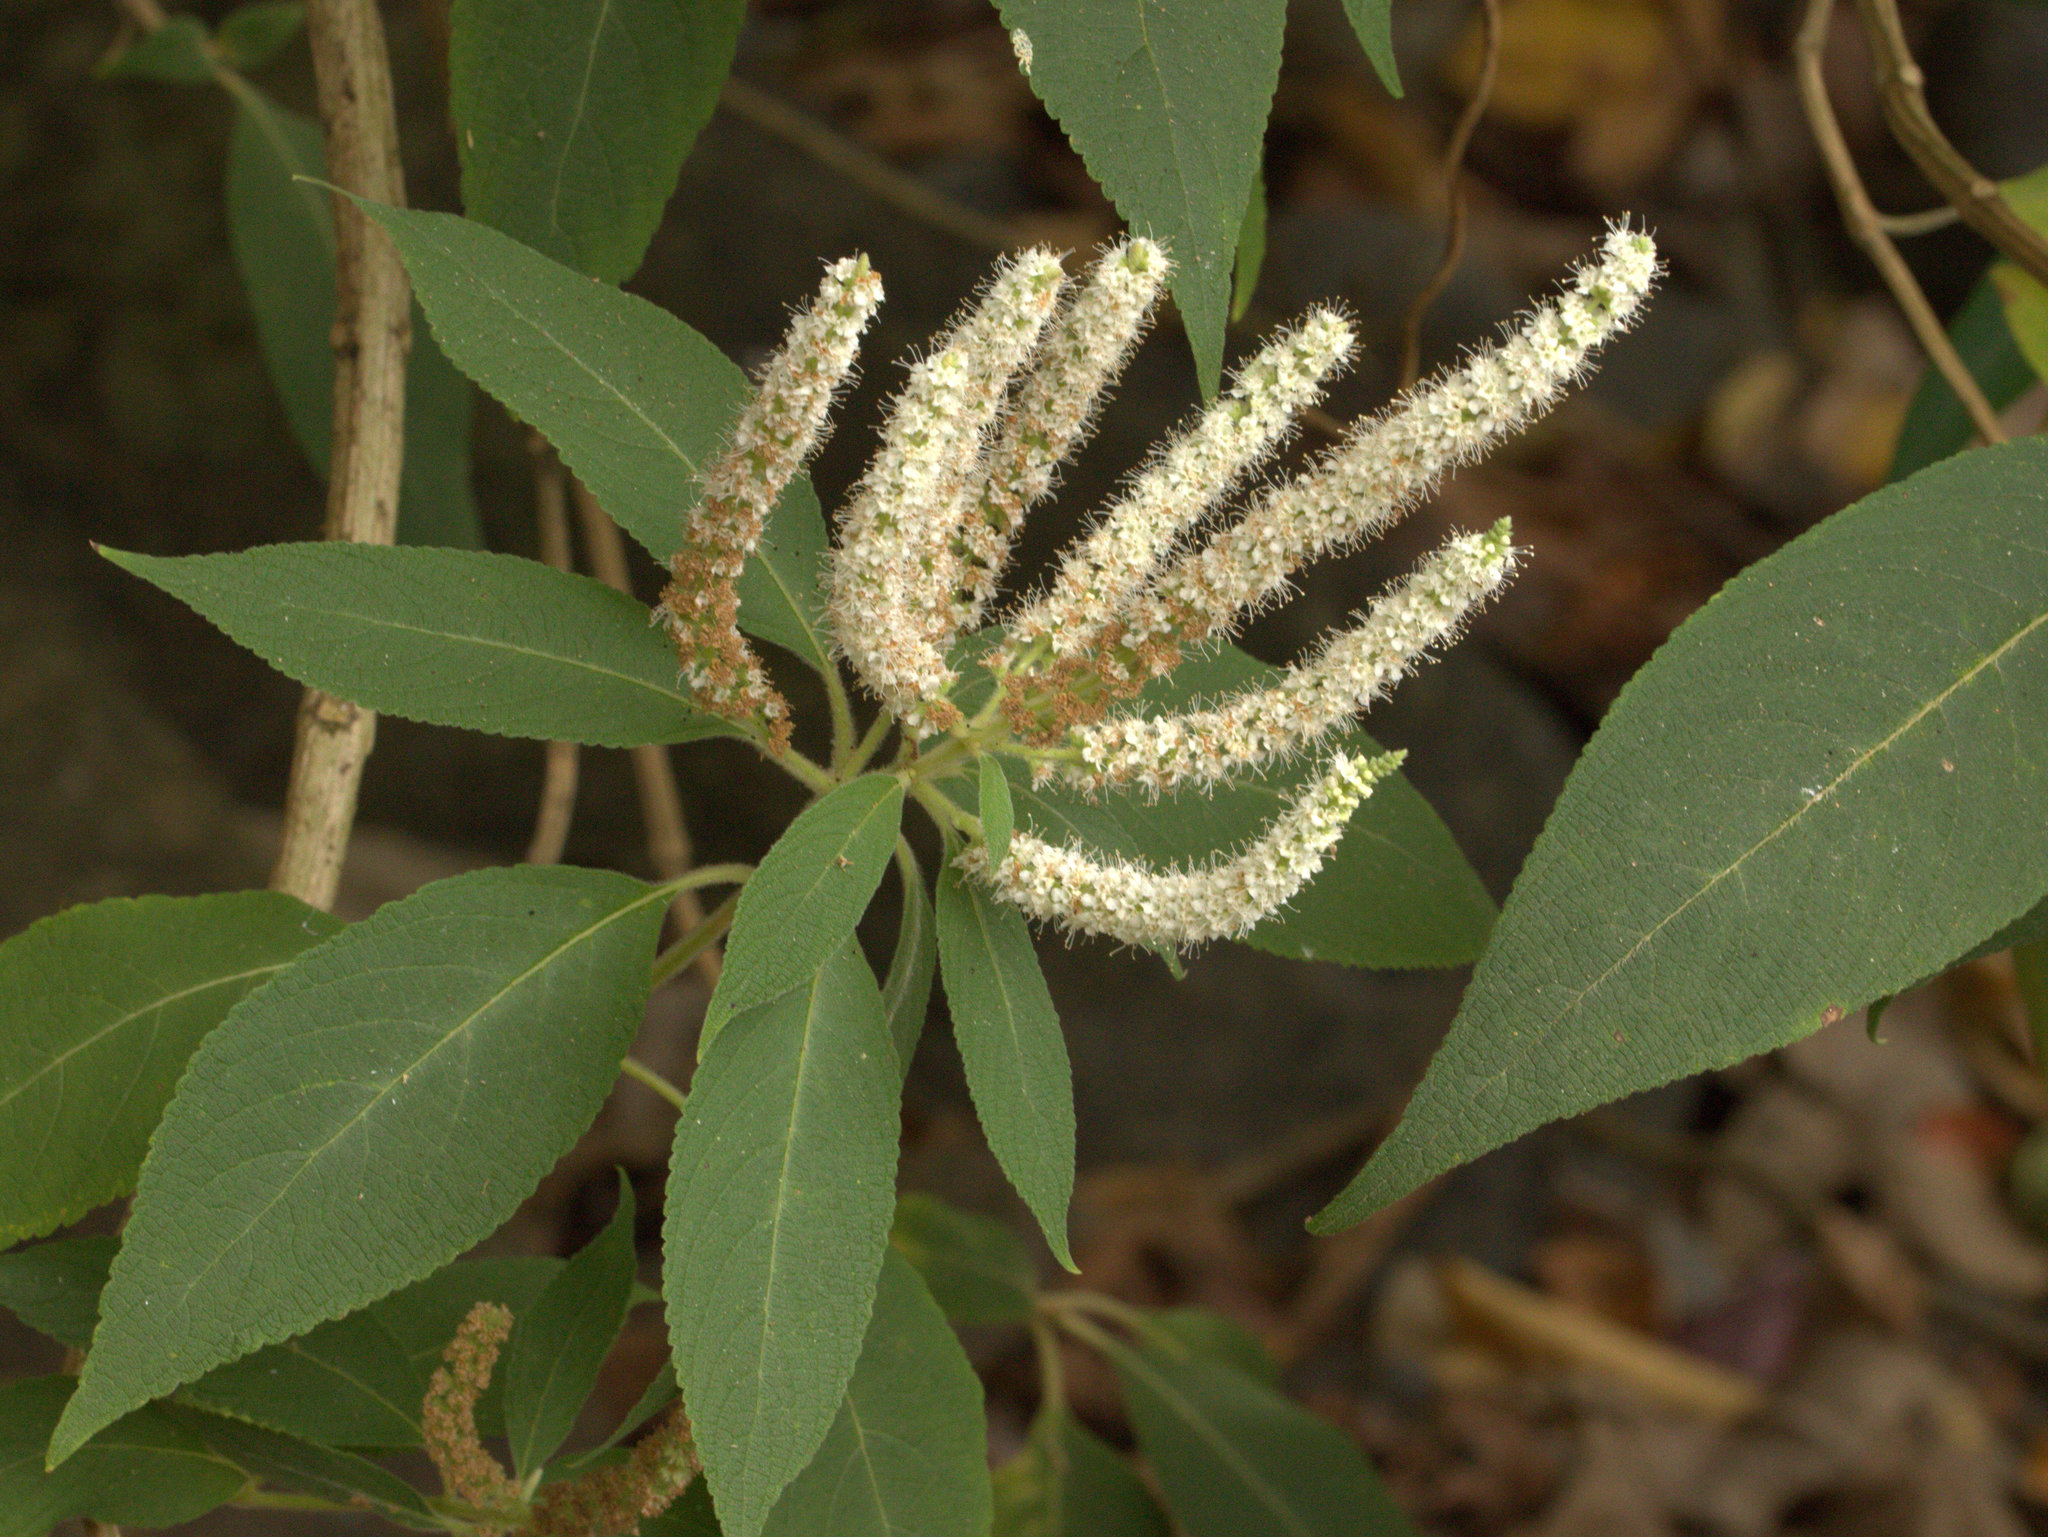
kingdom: Plantae
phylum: Tracheophyta
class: Magnoliopsida
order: Lamiales
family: Lamiaceae
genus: Colebrookea
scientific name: Colebrookea oppositifolia
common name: Indian squirrel tail
